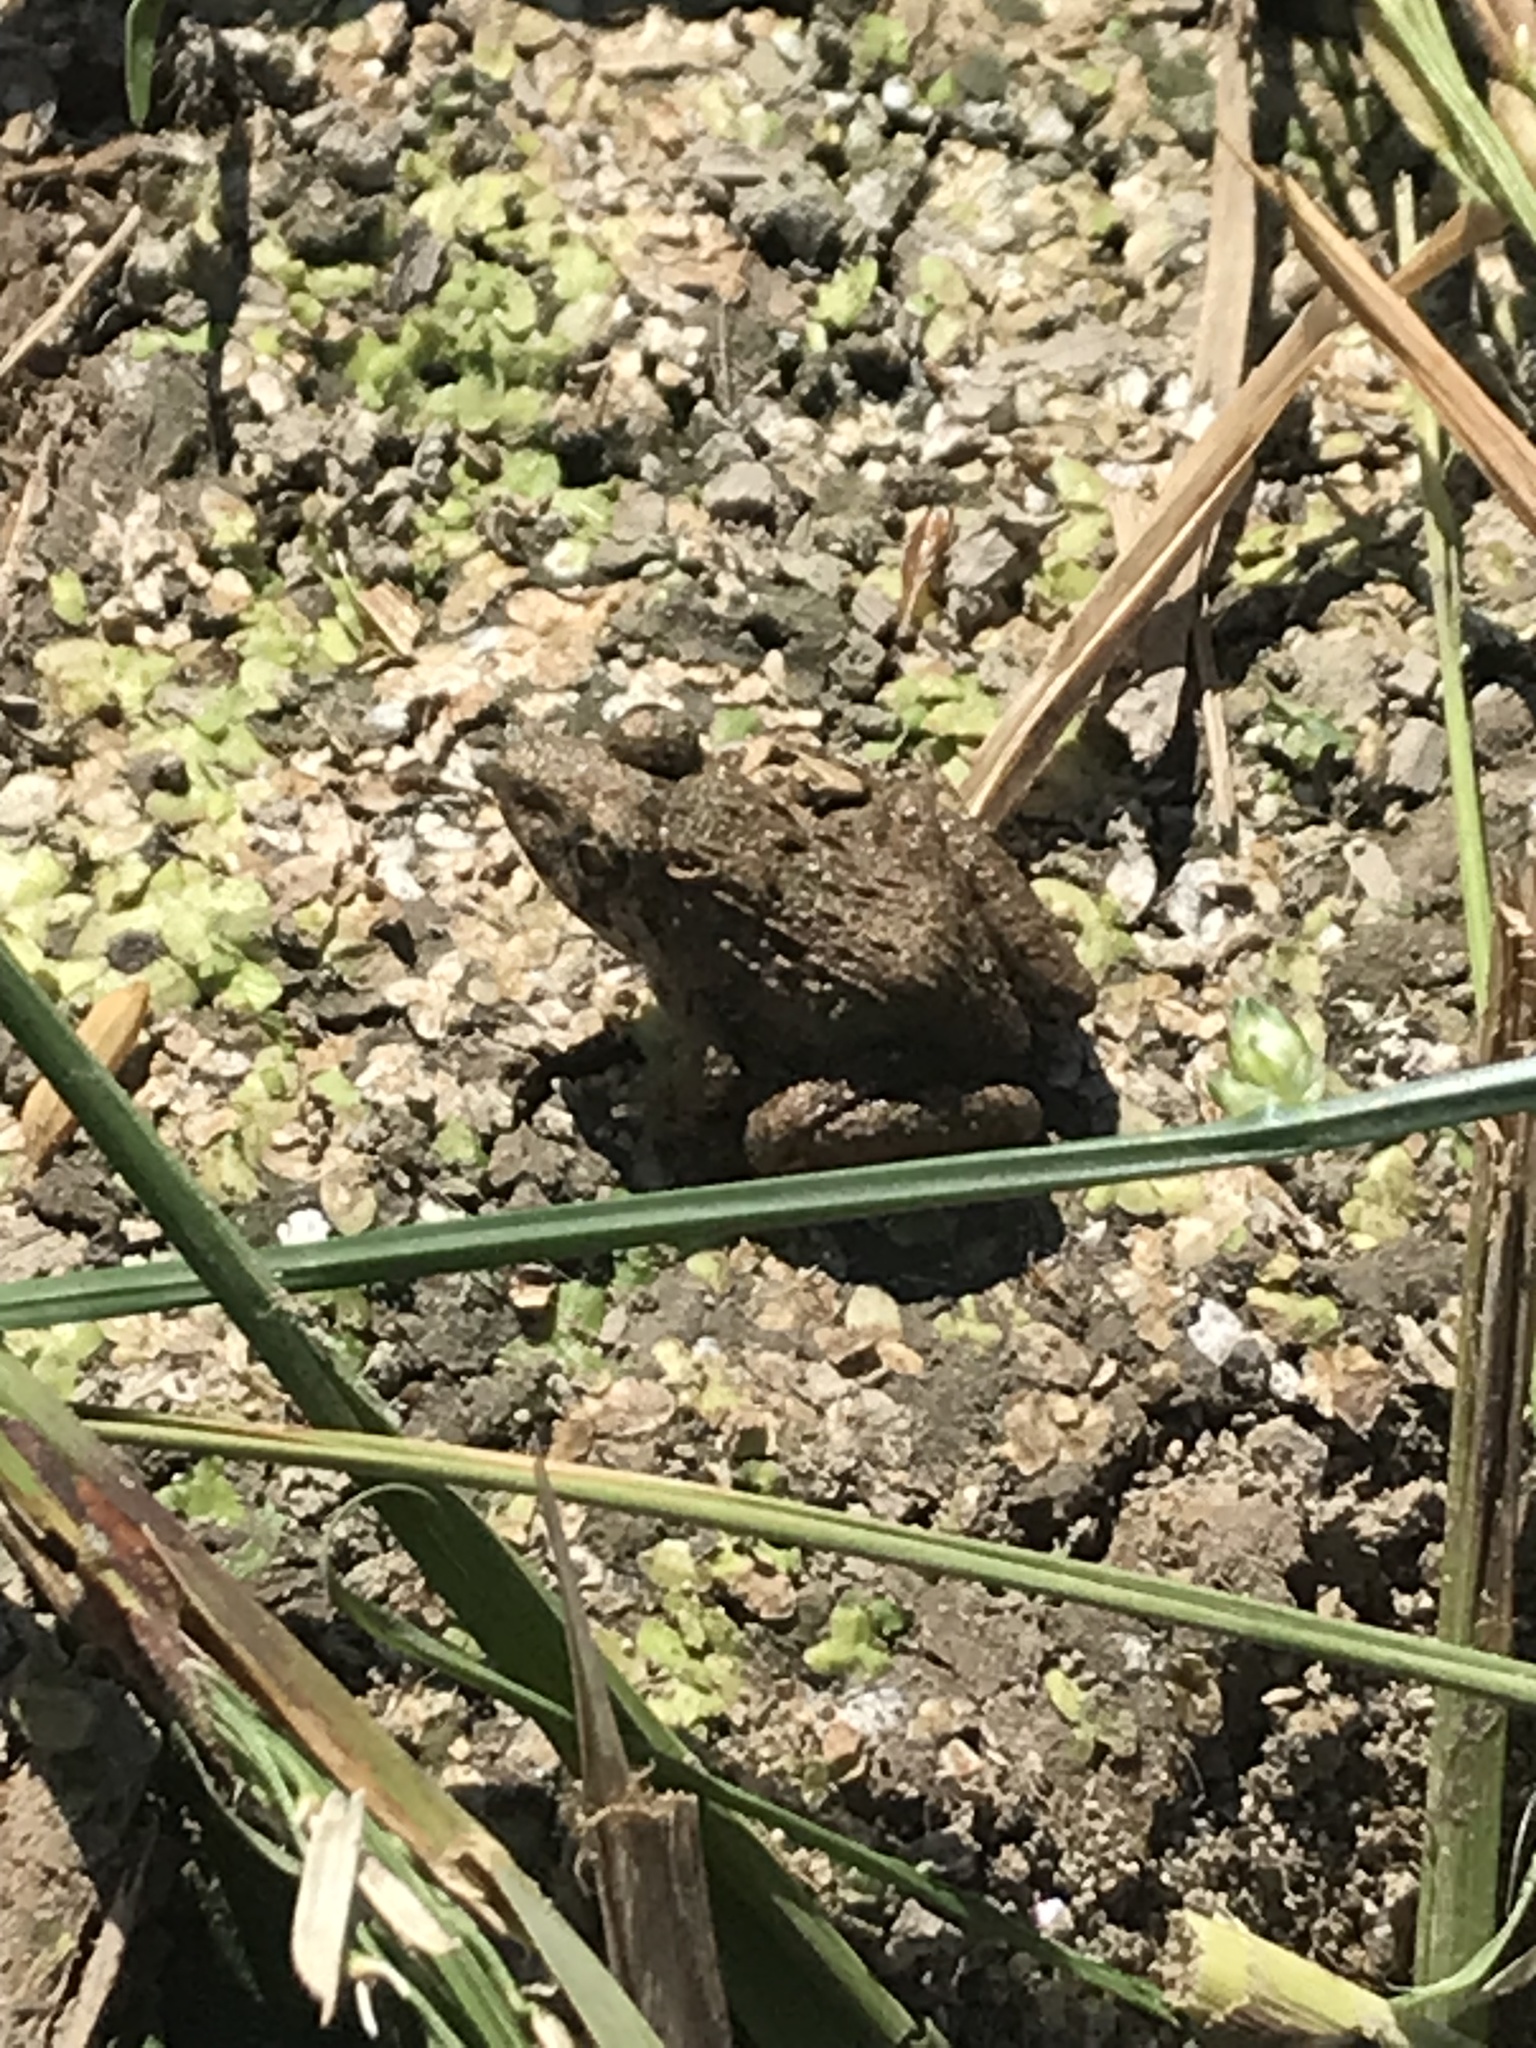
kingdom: Animalia
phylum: Chordata
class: Amphibia
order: Anura
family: Dicroglossidae
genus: Fejervarya
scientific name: Fejervarya multistriata
